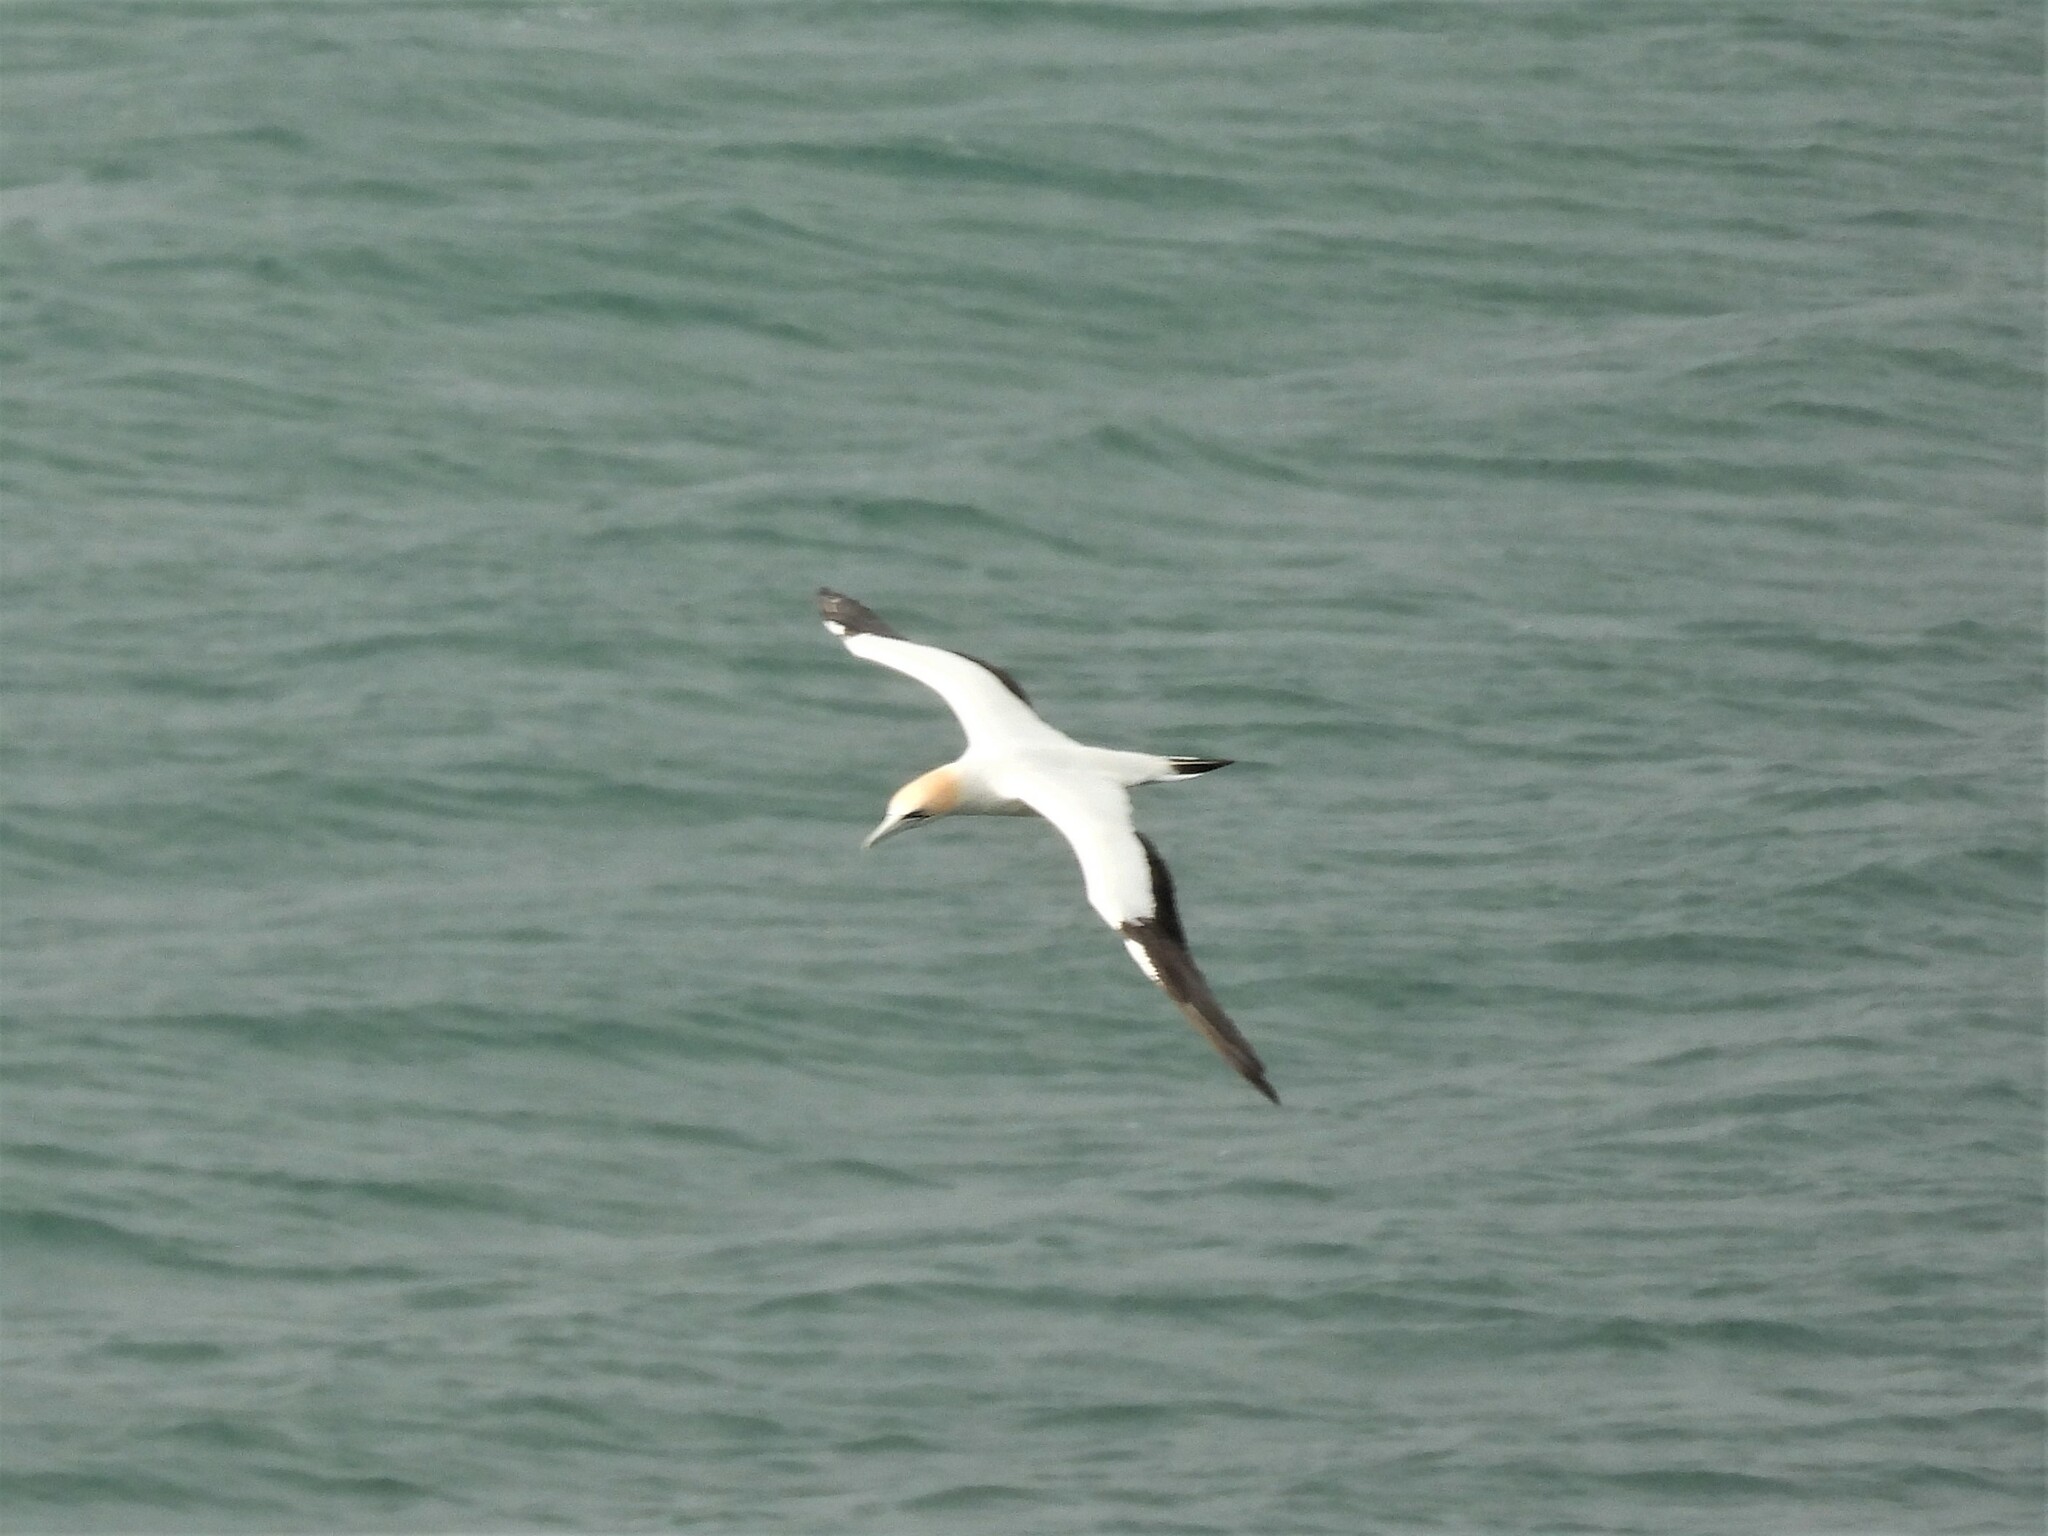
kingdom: Animalia
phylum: Chordata
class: Aves
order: Suliformes
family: Sulidae
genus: Morus
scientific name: Morus serrator
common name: Australasian gannet
